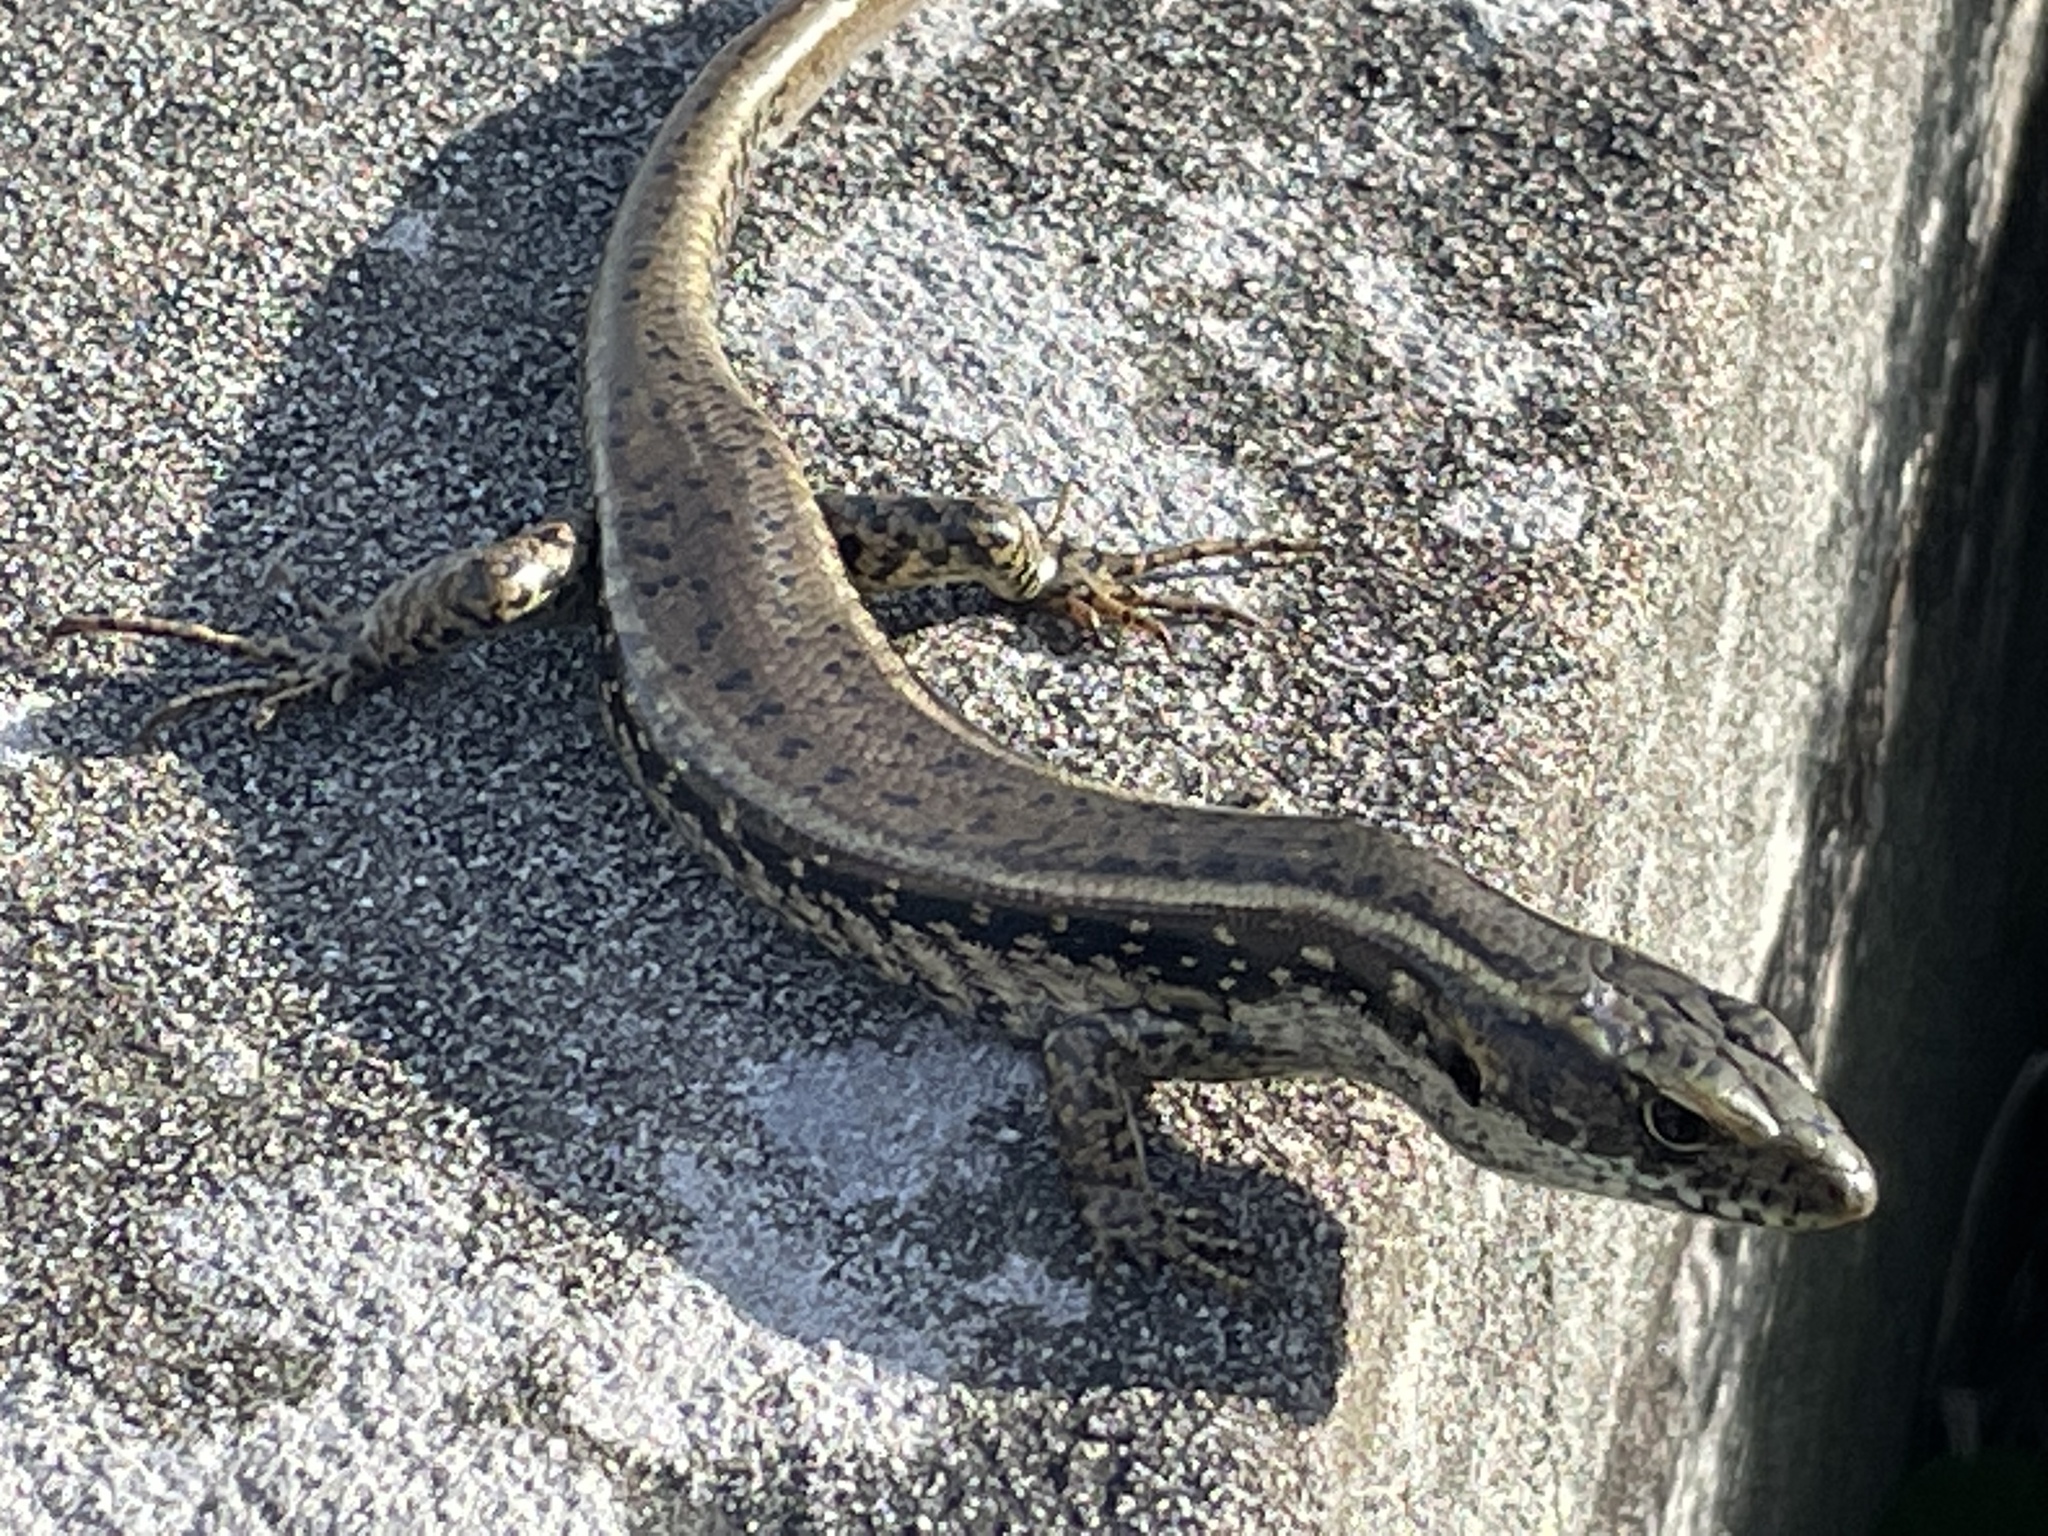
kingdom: Animalia
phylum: Chordata
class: Squamata
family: Scincidae
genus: Eulamprus
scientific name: Eulamprus quoyii
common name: Eastern water skink
